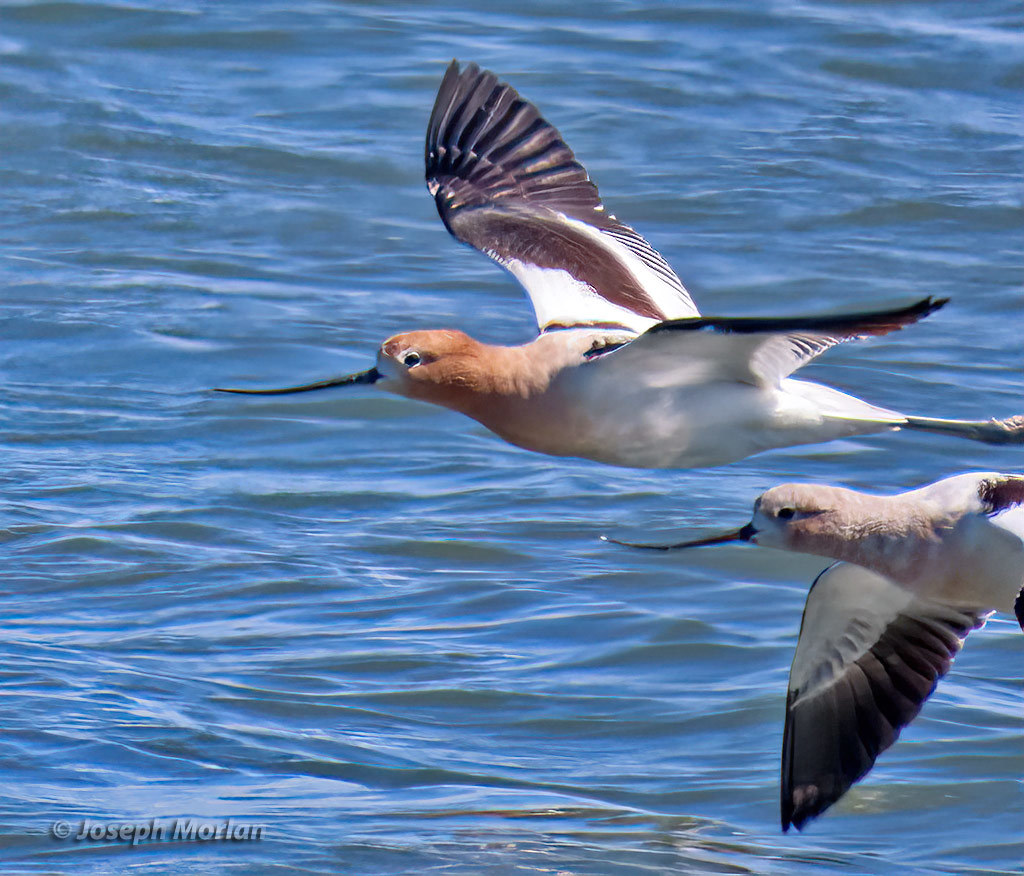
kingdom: Animalia
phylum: Chordata
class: Aves
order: Charadriiformes
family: Recurvirostridae
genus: Recurvirostra
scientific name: Recurvirostra americana
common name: American avocet
